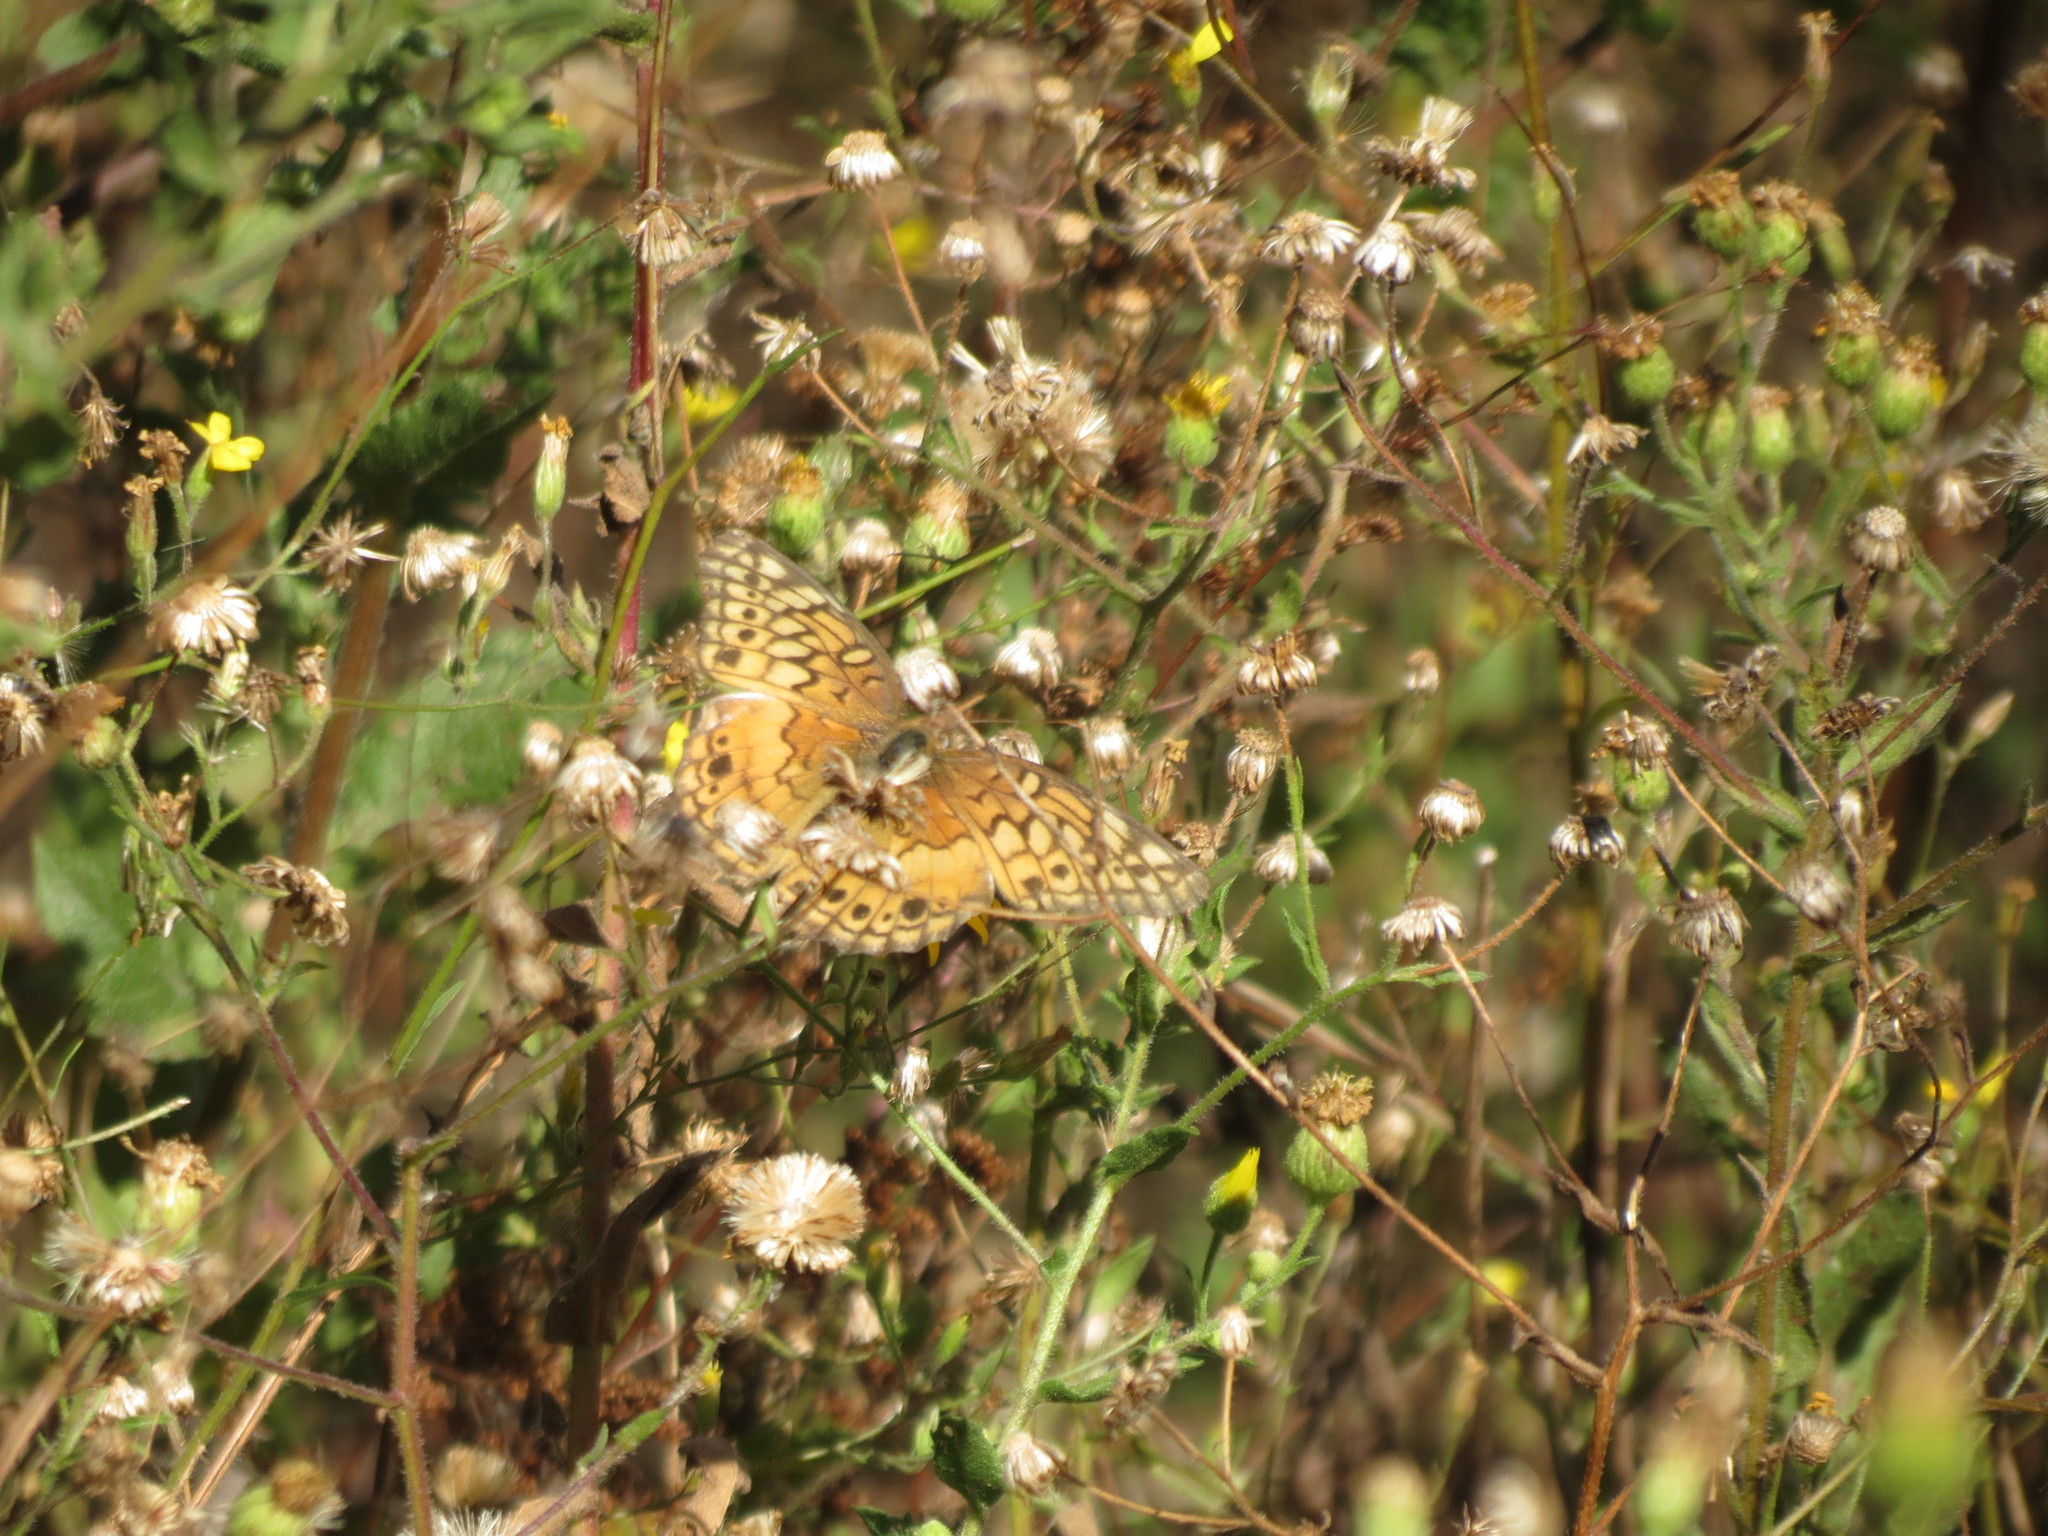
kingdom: Animalia
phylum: Arthropoda
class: Insecta
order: Lepidoptera
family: Nymphalidae
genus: Euptoieta
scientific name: Euptoieta claudia
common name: Variegated fritillary
